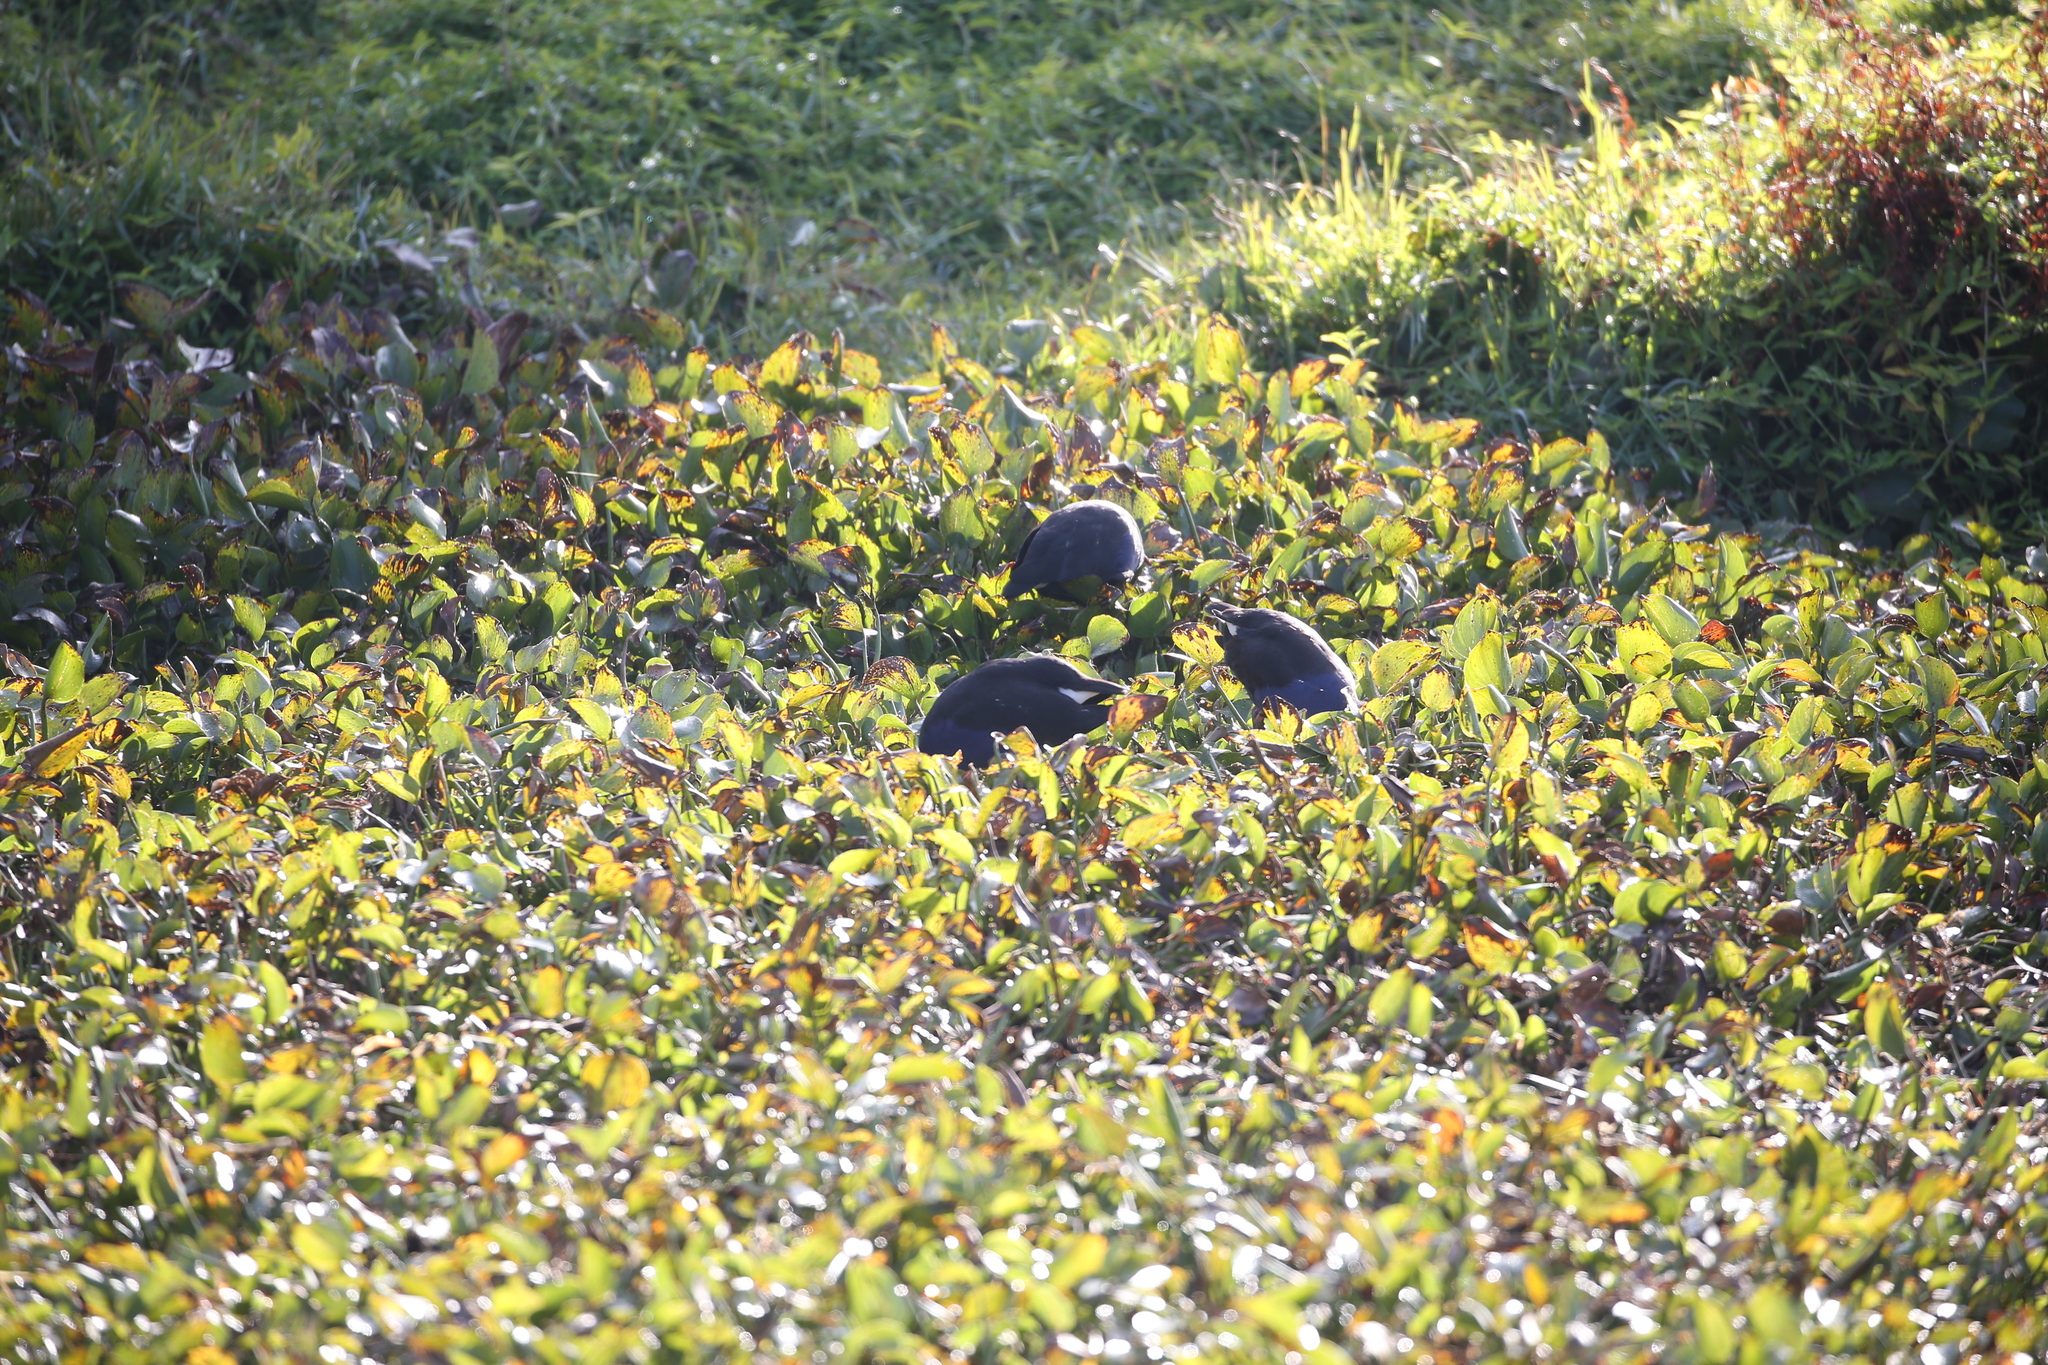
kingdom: Animalia
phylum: Chordata
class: Aves
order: Gruiformes
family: Rallidae
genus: Porphyrio
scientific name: Porphyrio melanotus
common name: Australasian swamphen
